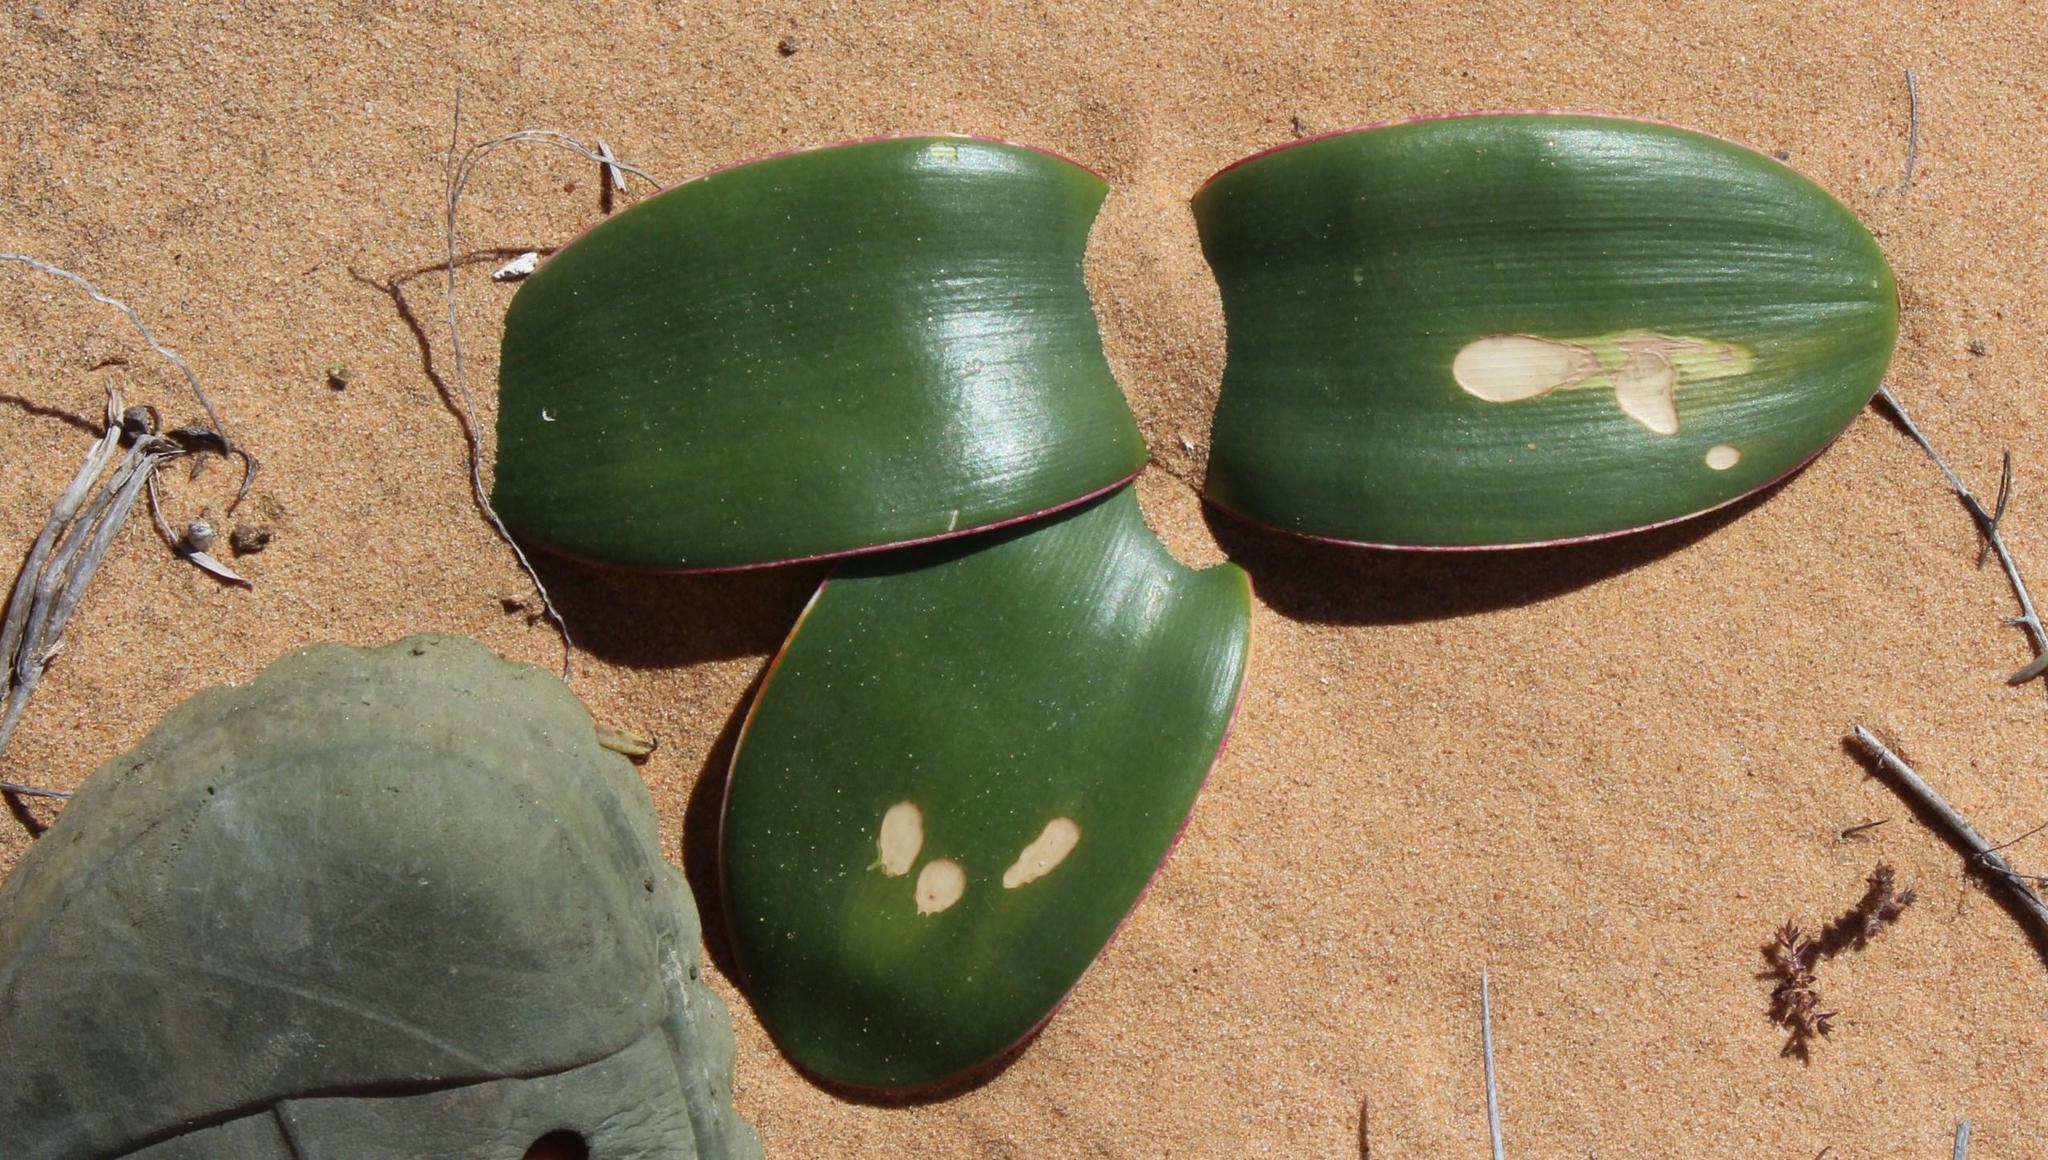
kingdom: Plantae
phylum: Tracheophyta
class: Liliopsida
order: Asparagales
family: Amaryllidaceae
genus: Brunsvigia
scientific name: Brunsvigia bosmaniae
